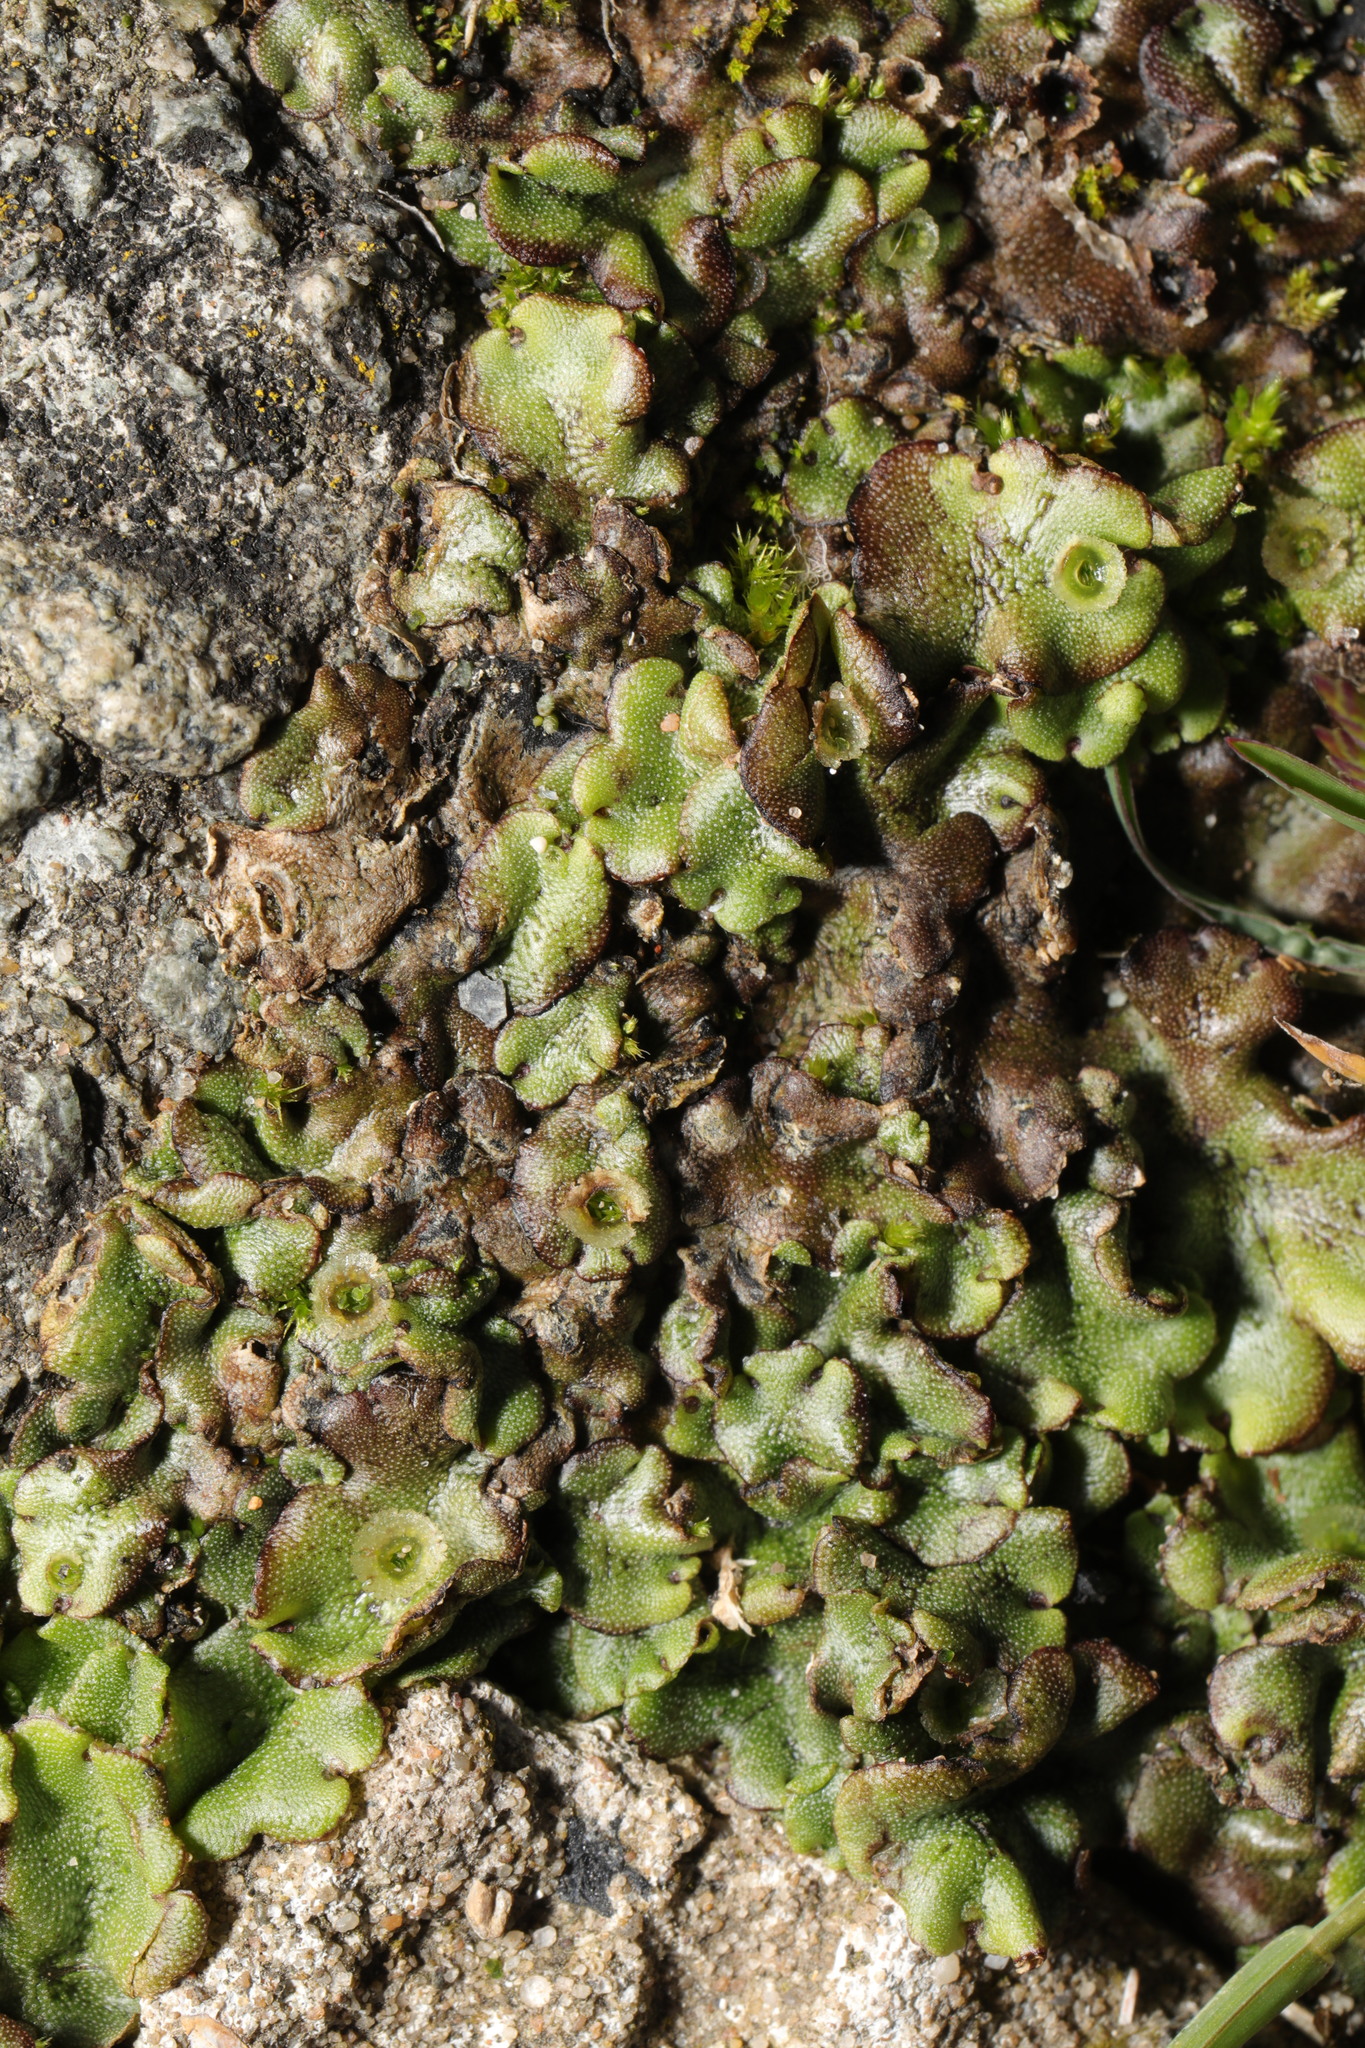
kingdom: Plantae
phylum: Marchantiophyta
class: Marchantiopsida
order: Marchantiales
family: Marchantiaceae
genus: Marchantia
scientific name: Marchantia polymorpha
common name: Common liverwort
